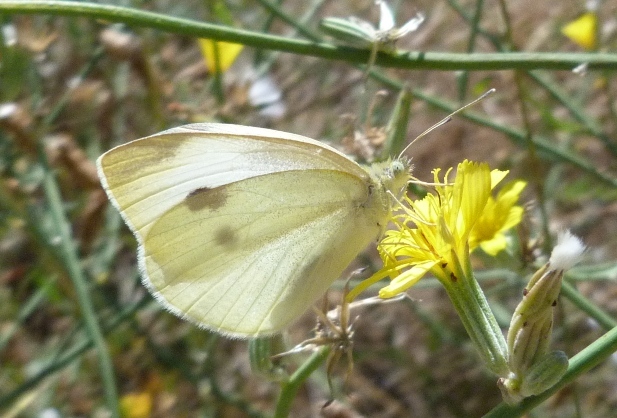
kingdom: Animalia
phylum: Arthropoda
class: Insecta
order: Lepidoptera
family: Pieridae
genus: Pieris
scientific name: Pieris rapae
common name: Small white
